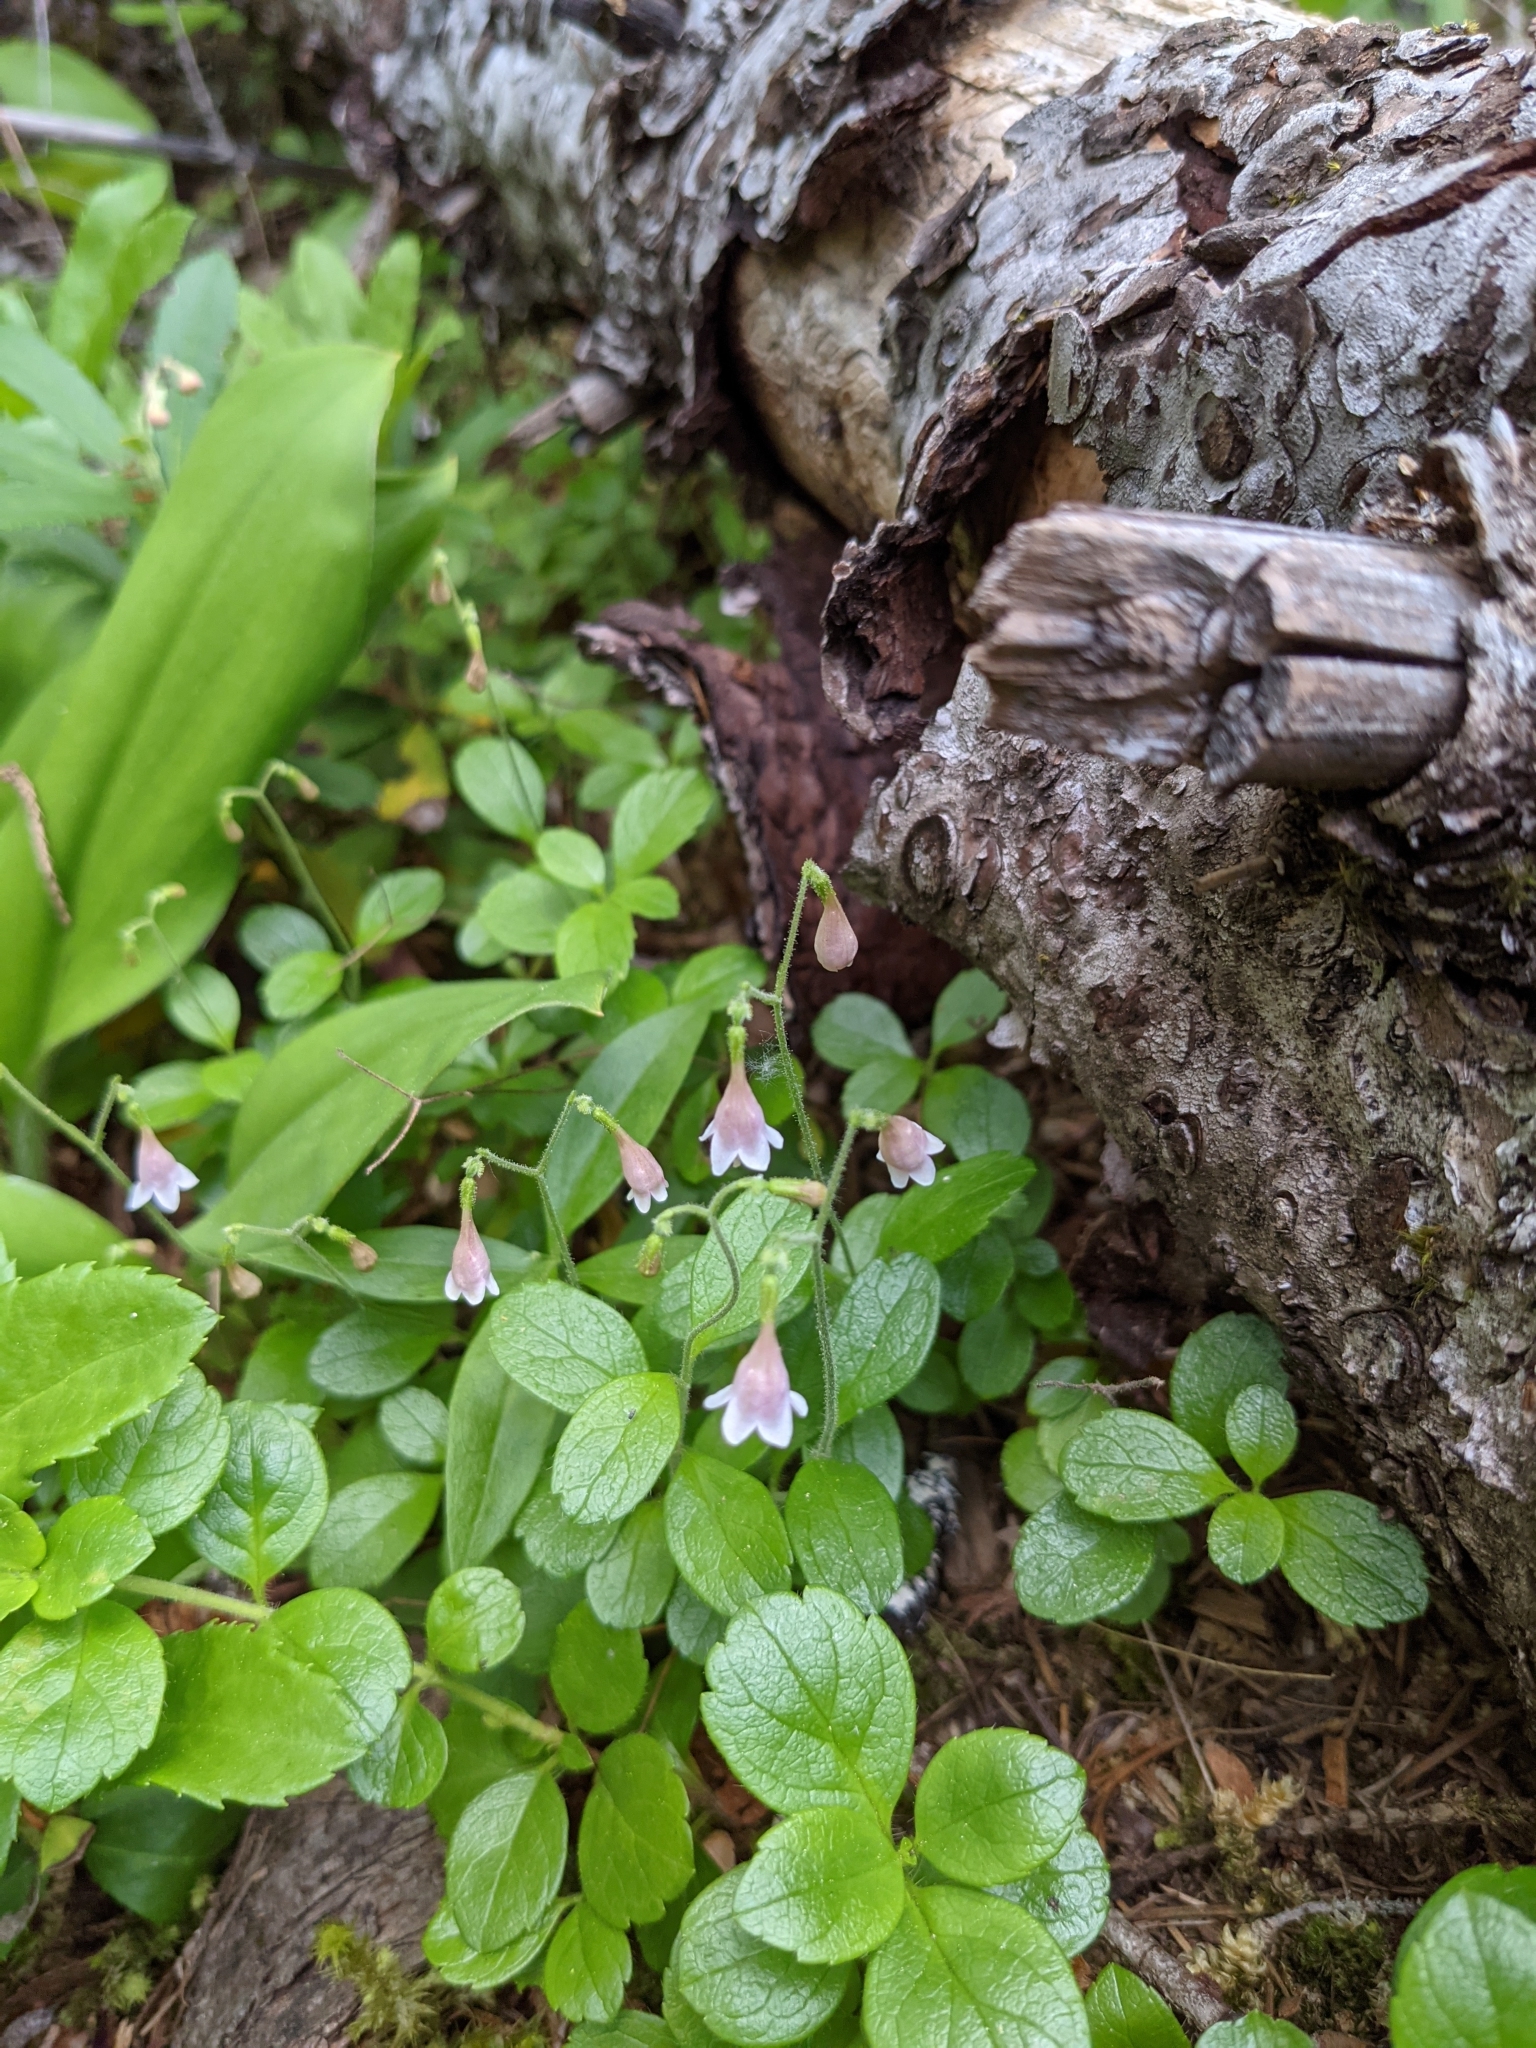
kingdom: Plantae
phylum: Tracheophyta
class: Magnoliopsida
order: Dipsacales
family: Caprifoliaceae
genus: Linnaea
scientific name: Linnaea borealis
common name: Twinflower
